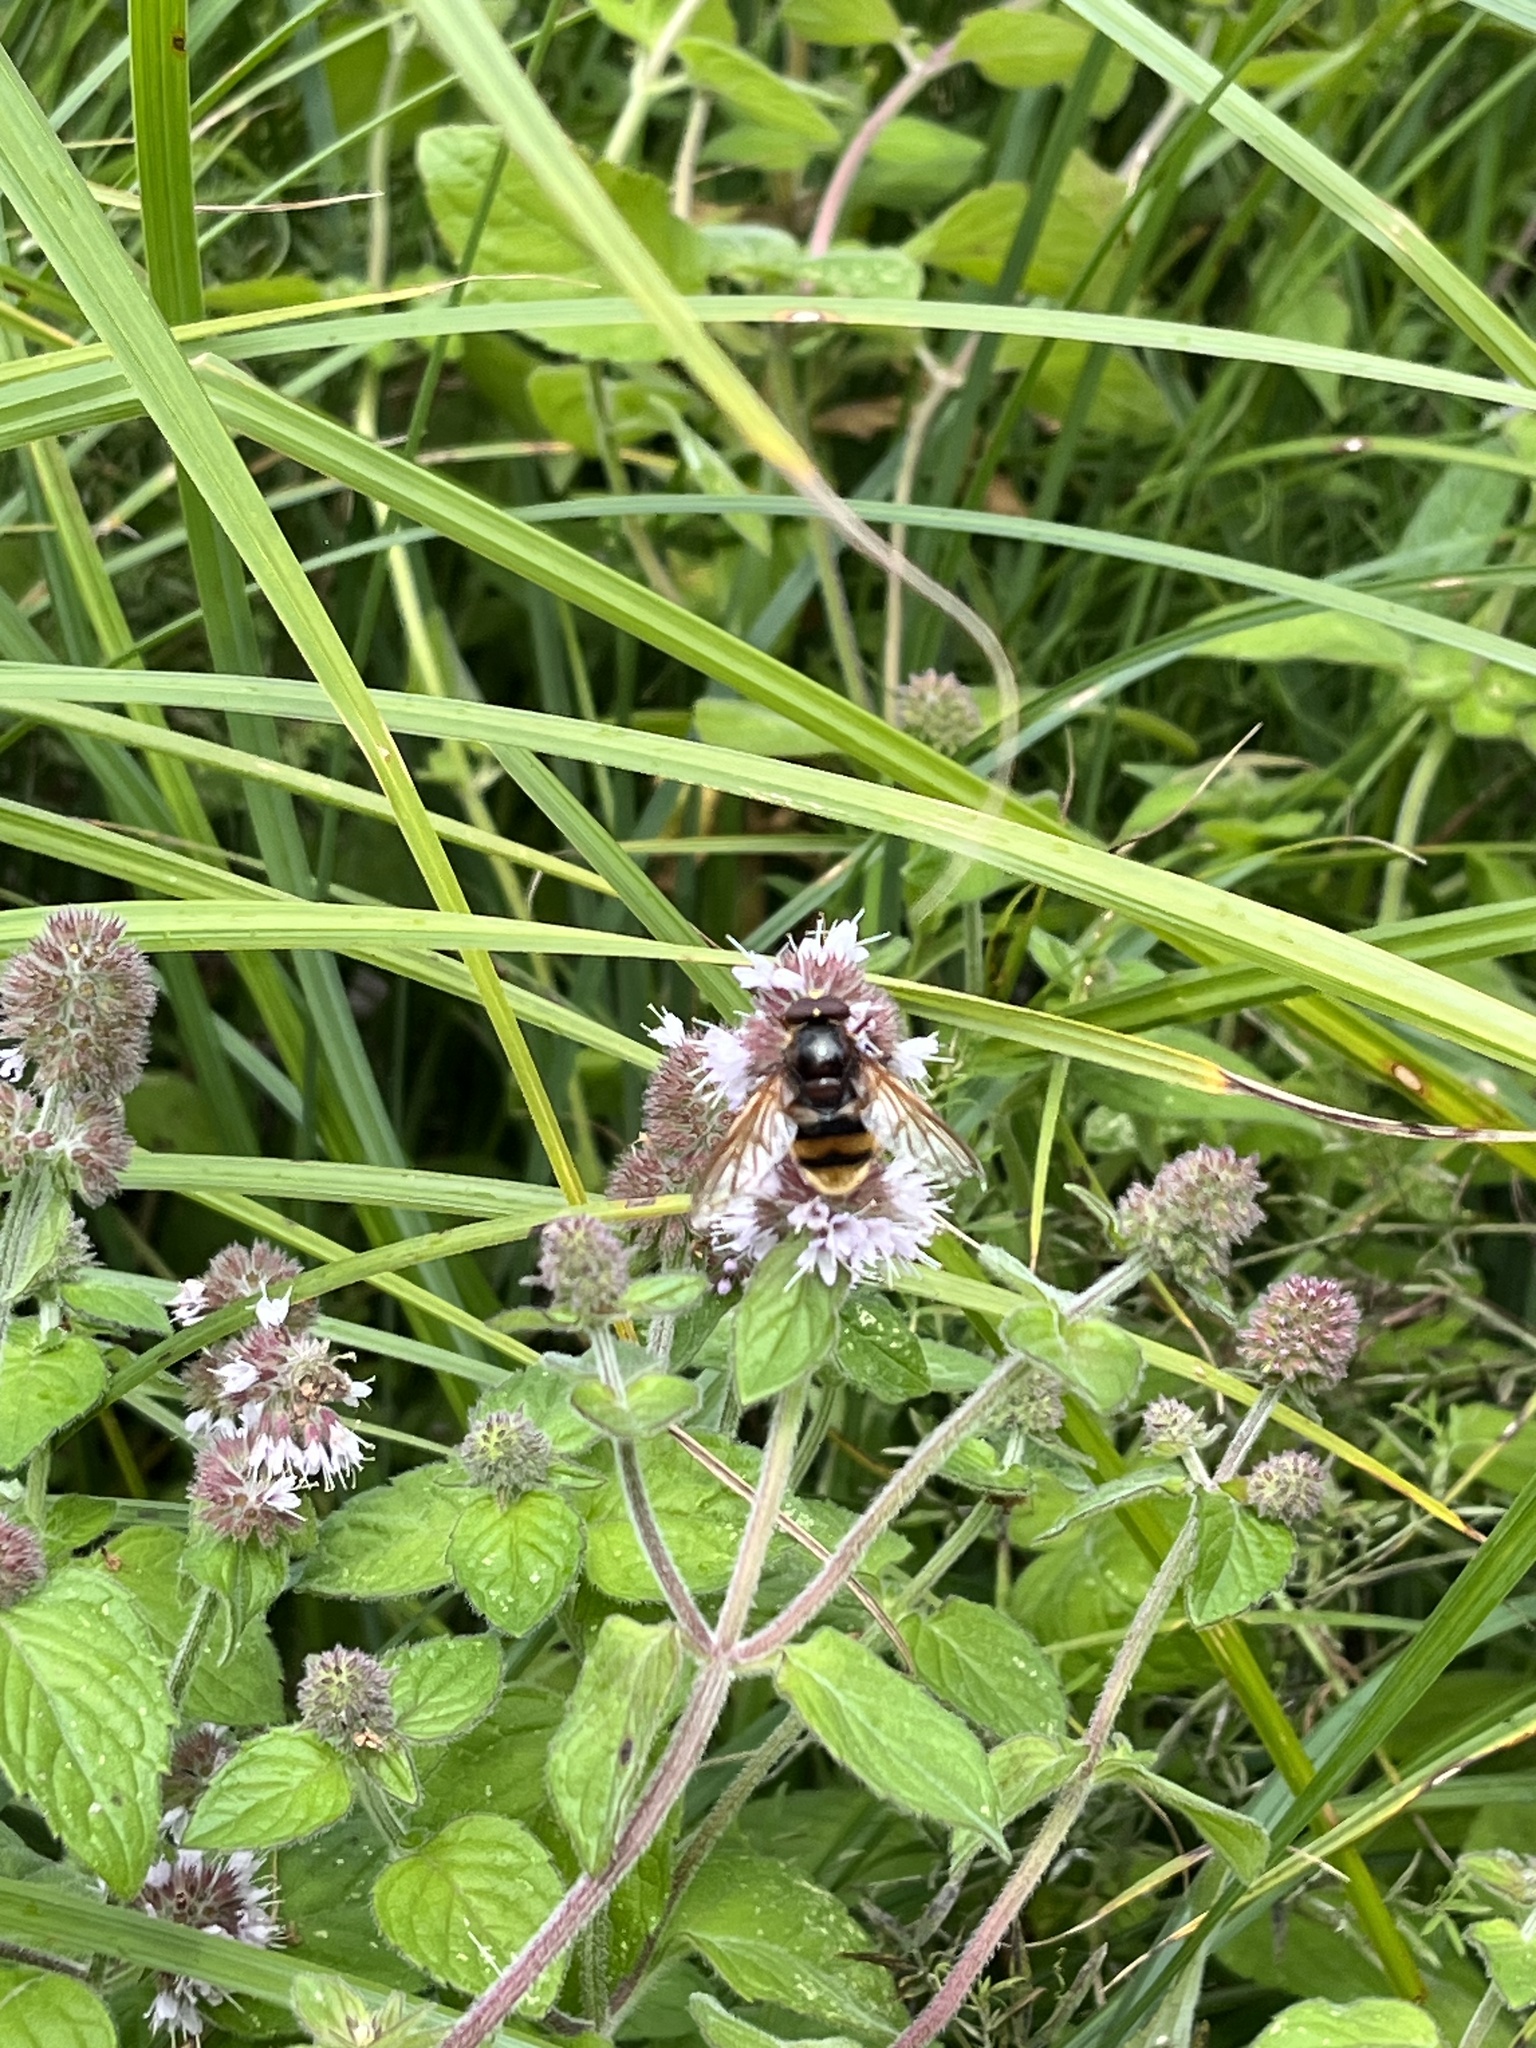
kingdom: Animalia
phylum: Arthropoda
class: Insecta
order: Diptera
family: Syrphidae
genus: Volucella
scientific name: Volucella zonaria
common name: Hornet hoverfly
